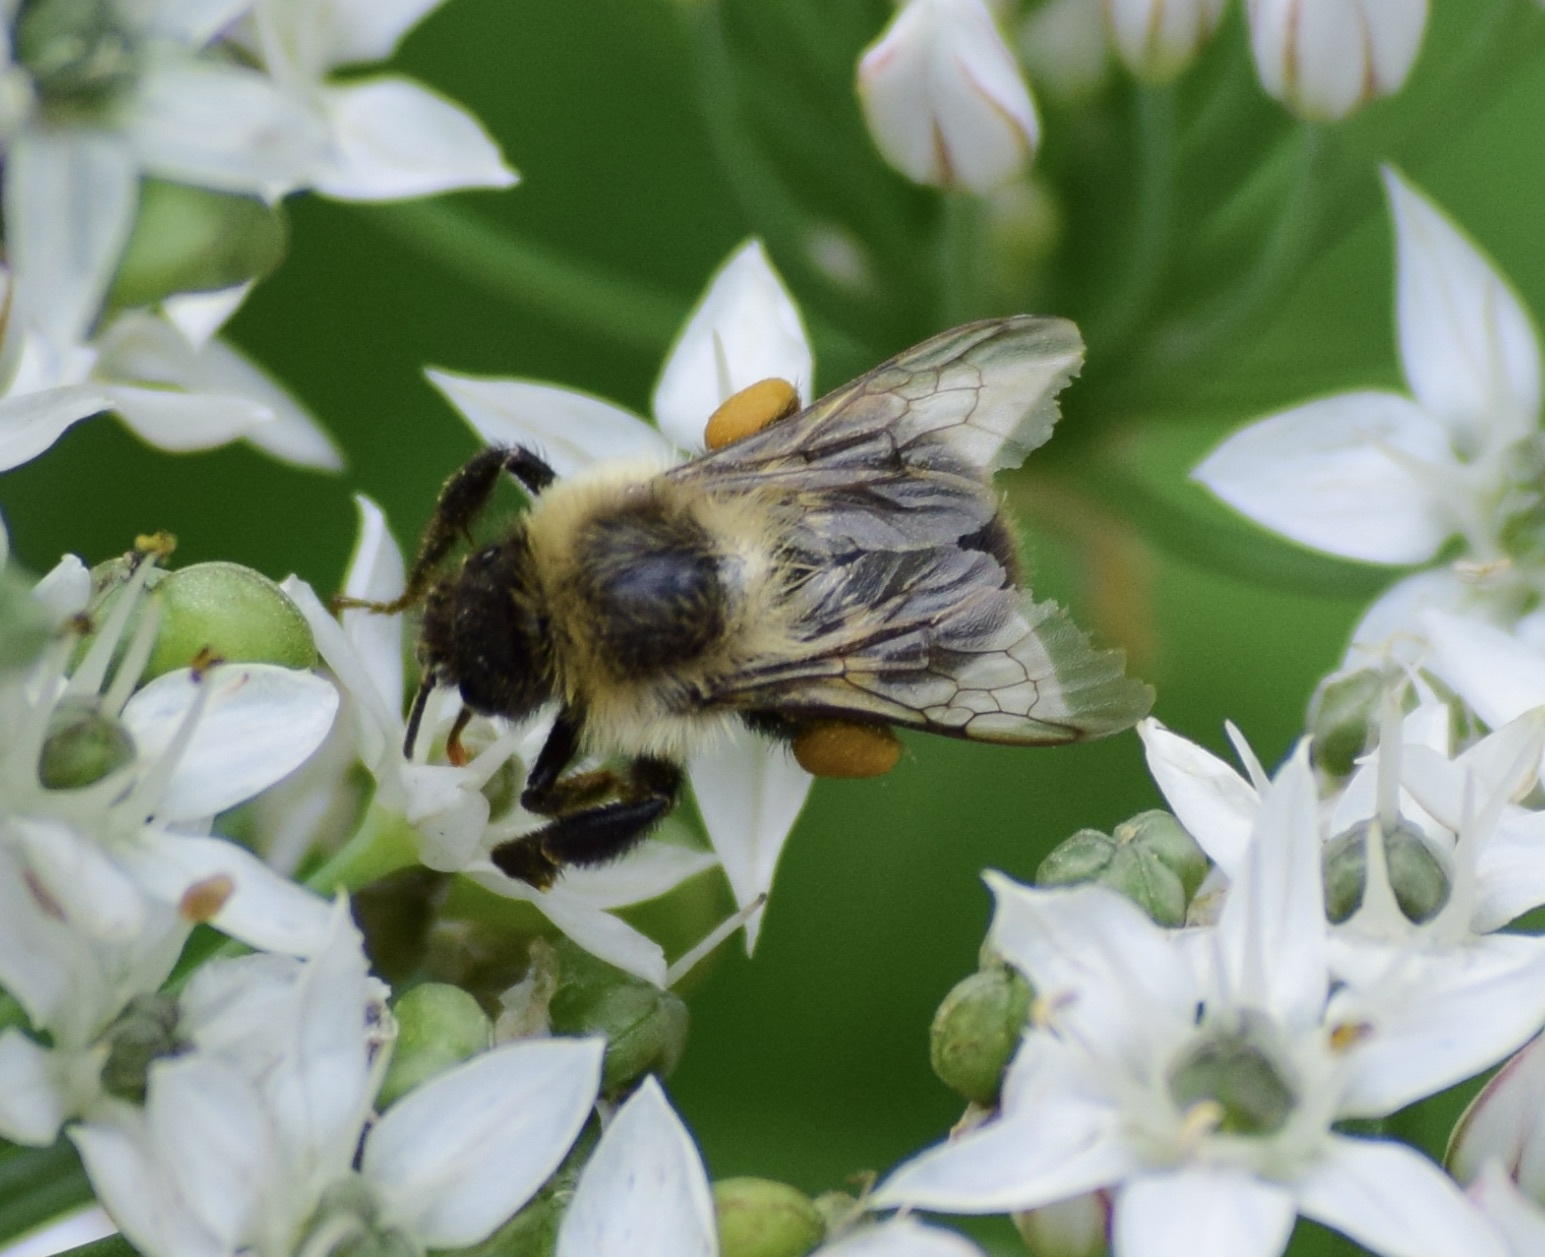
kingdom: Animalia
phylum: Arthropoda
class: Insecta
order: Hymenoptera
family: Apidae
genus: Bombus
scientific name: Bombus impatiens
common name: Common eastern bumble bee
